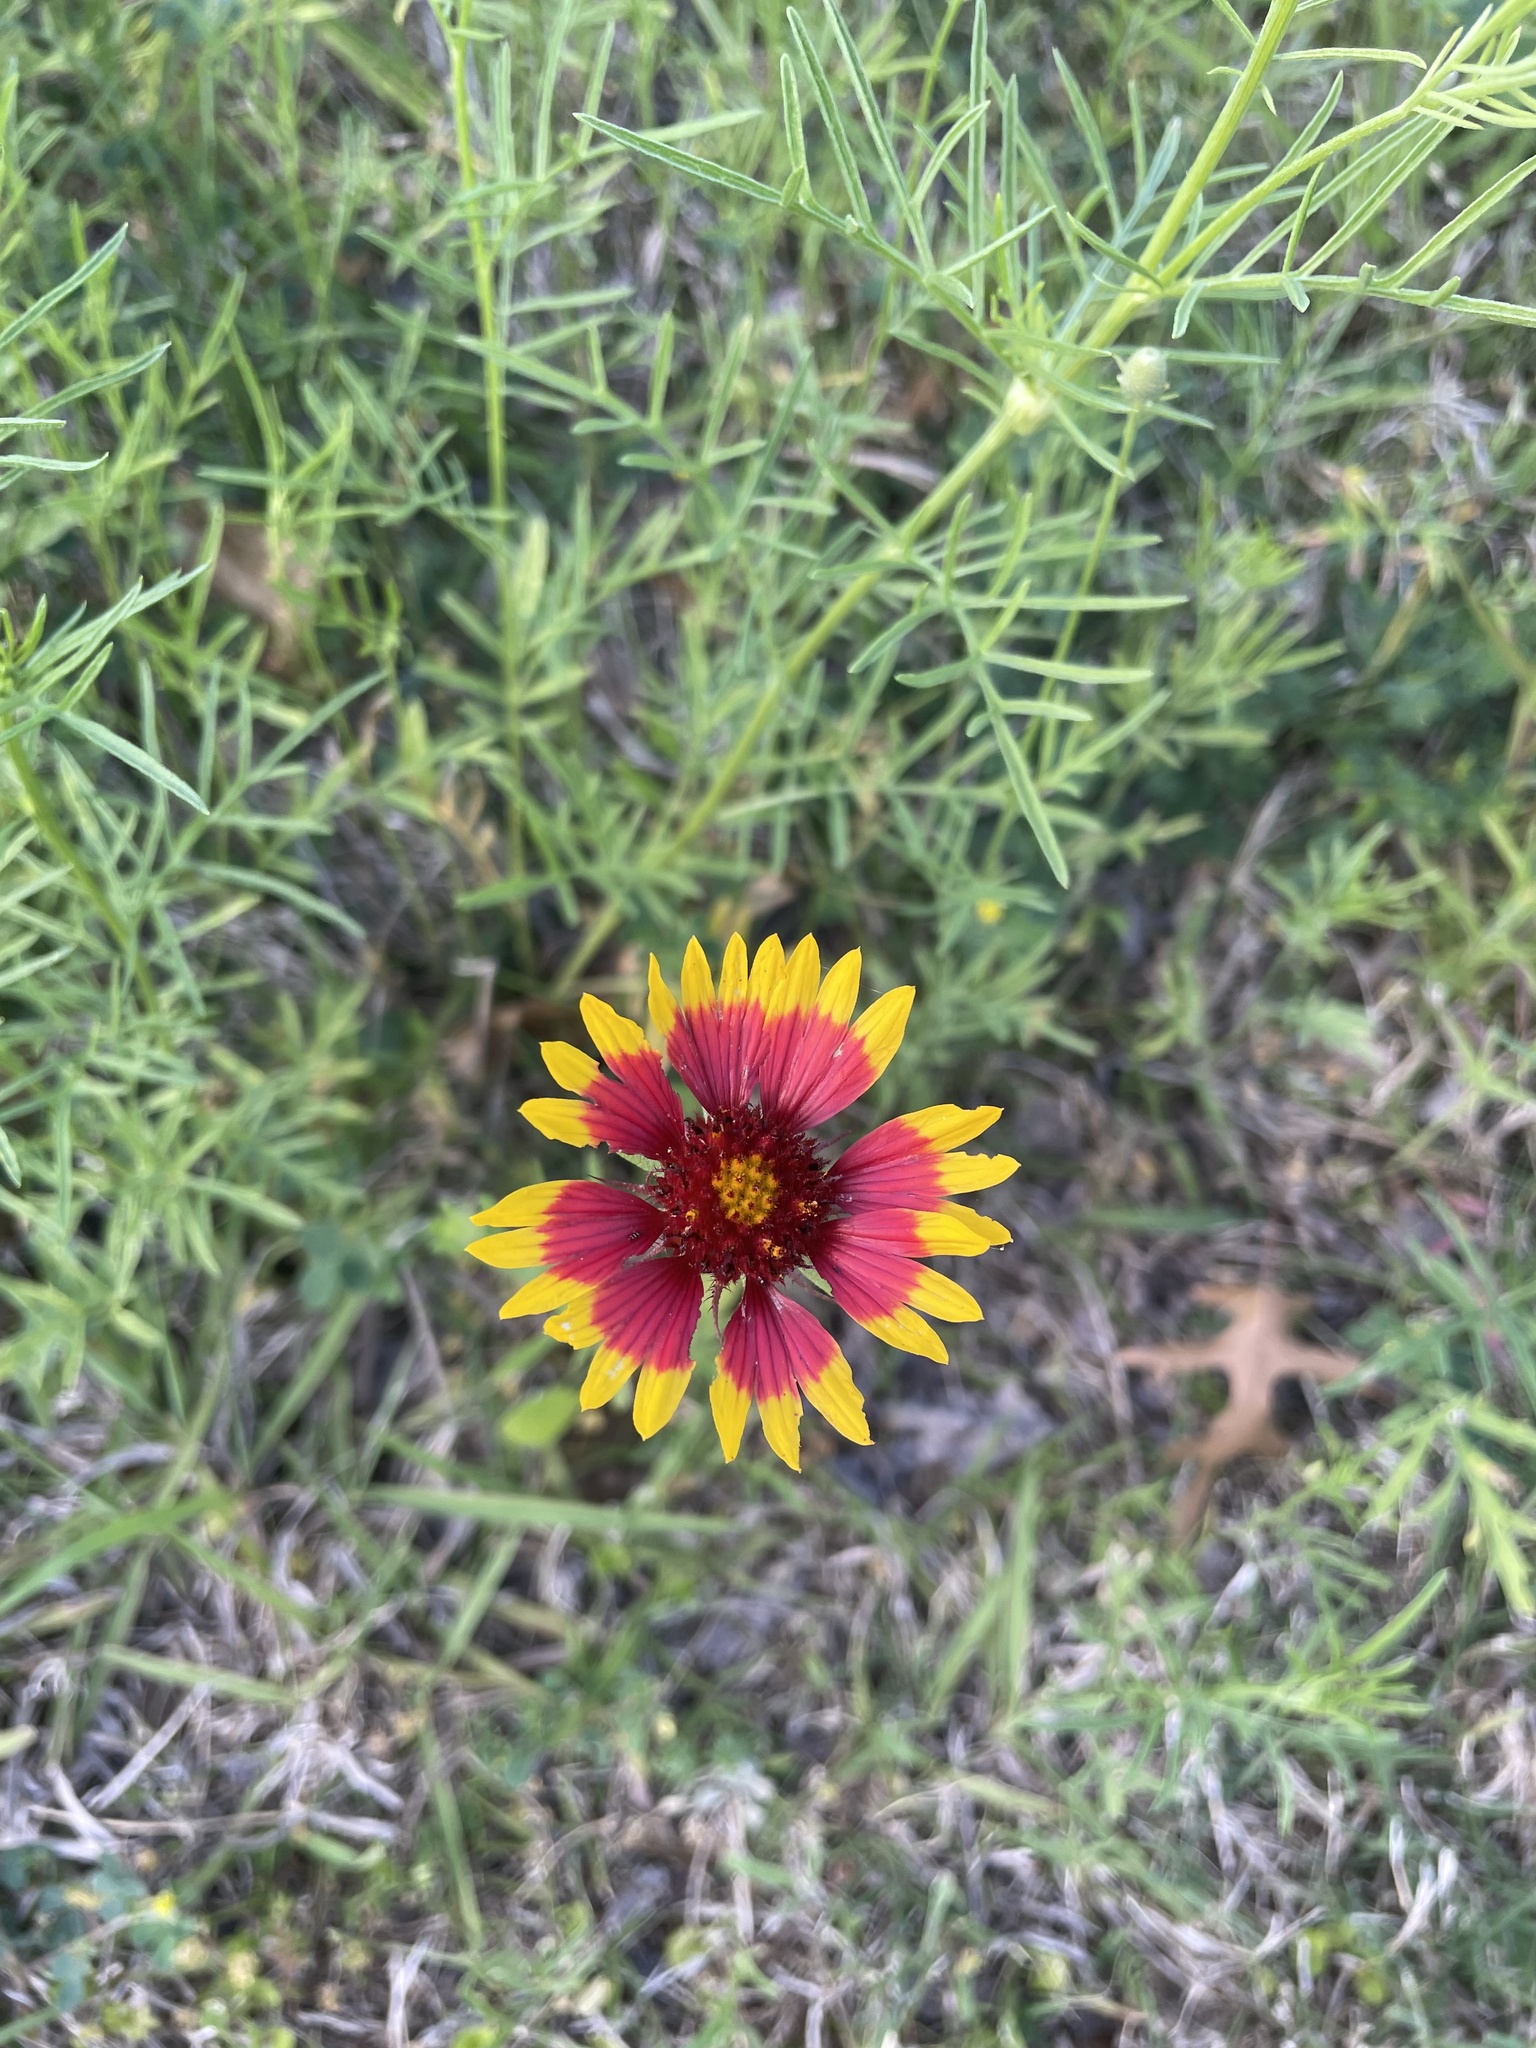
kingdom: Plantae
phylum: Tracheophyta
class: Magnoliopsida
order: Asterales
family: Asteraceae
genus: Gaillardia
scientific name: Gaillardia pulchella
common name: Firewheel
